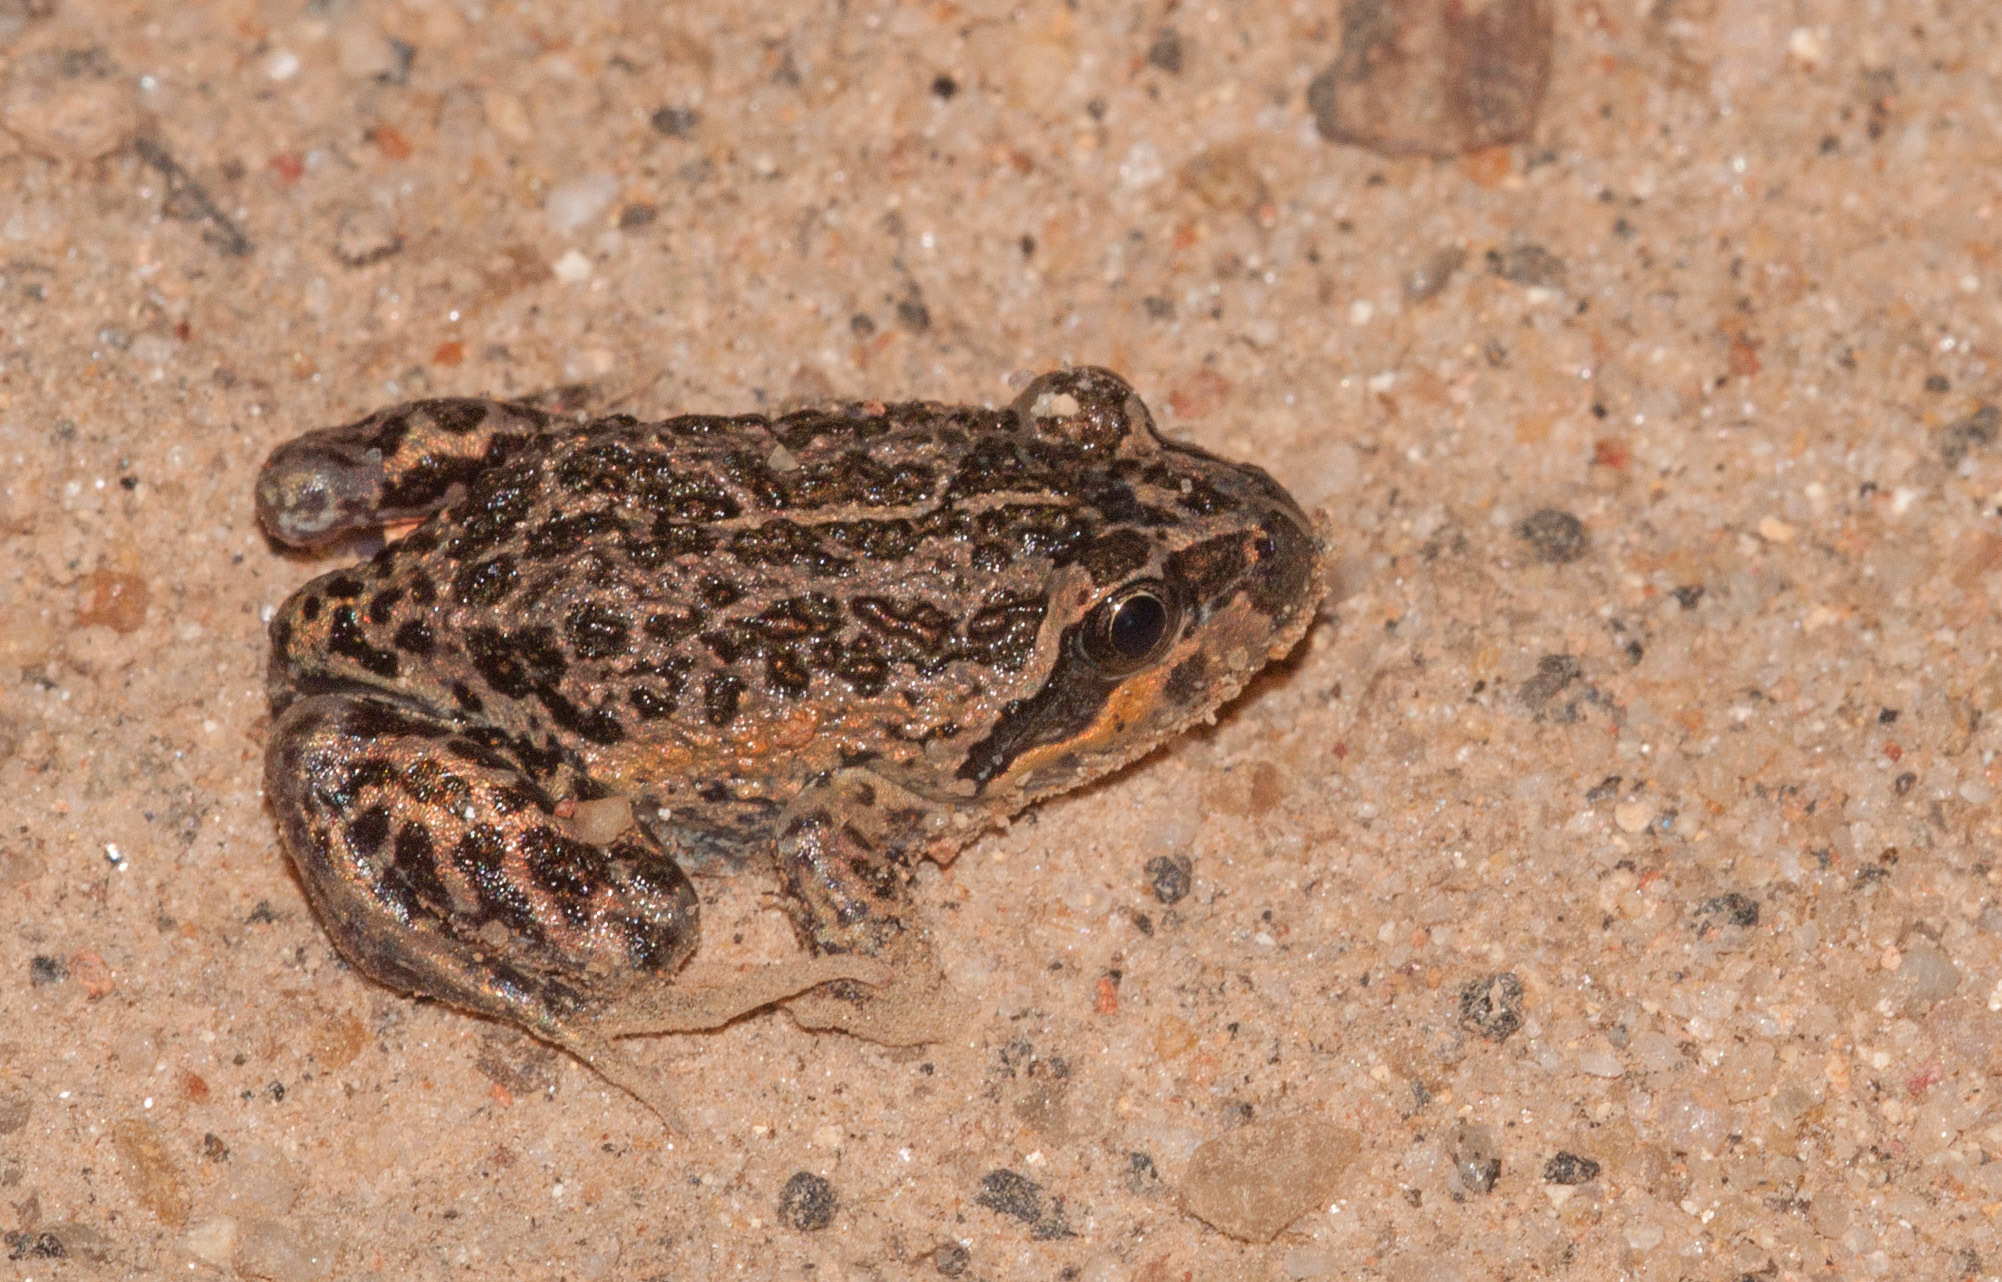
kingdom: Animalia
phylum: Chordata
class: Amphibia
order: Anura
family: Limnodynastidae
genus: Limnodynastes
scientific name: Limnodynastes dumerilii
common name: Banjo frog
